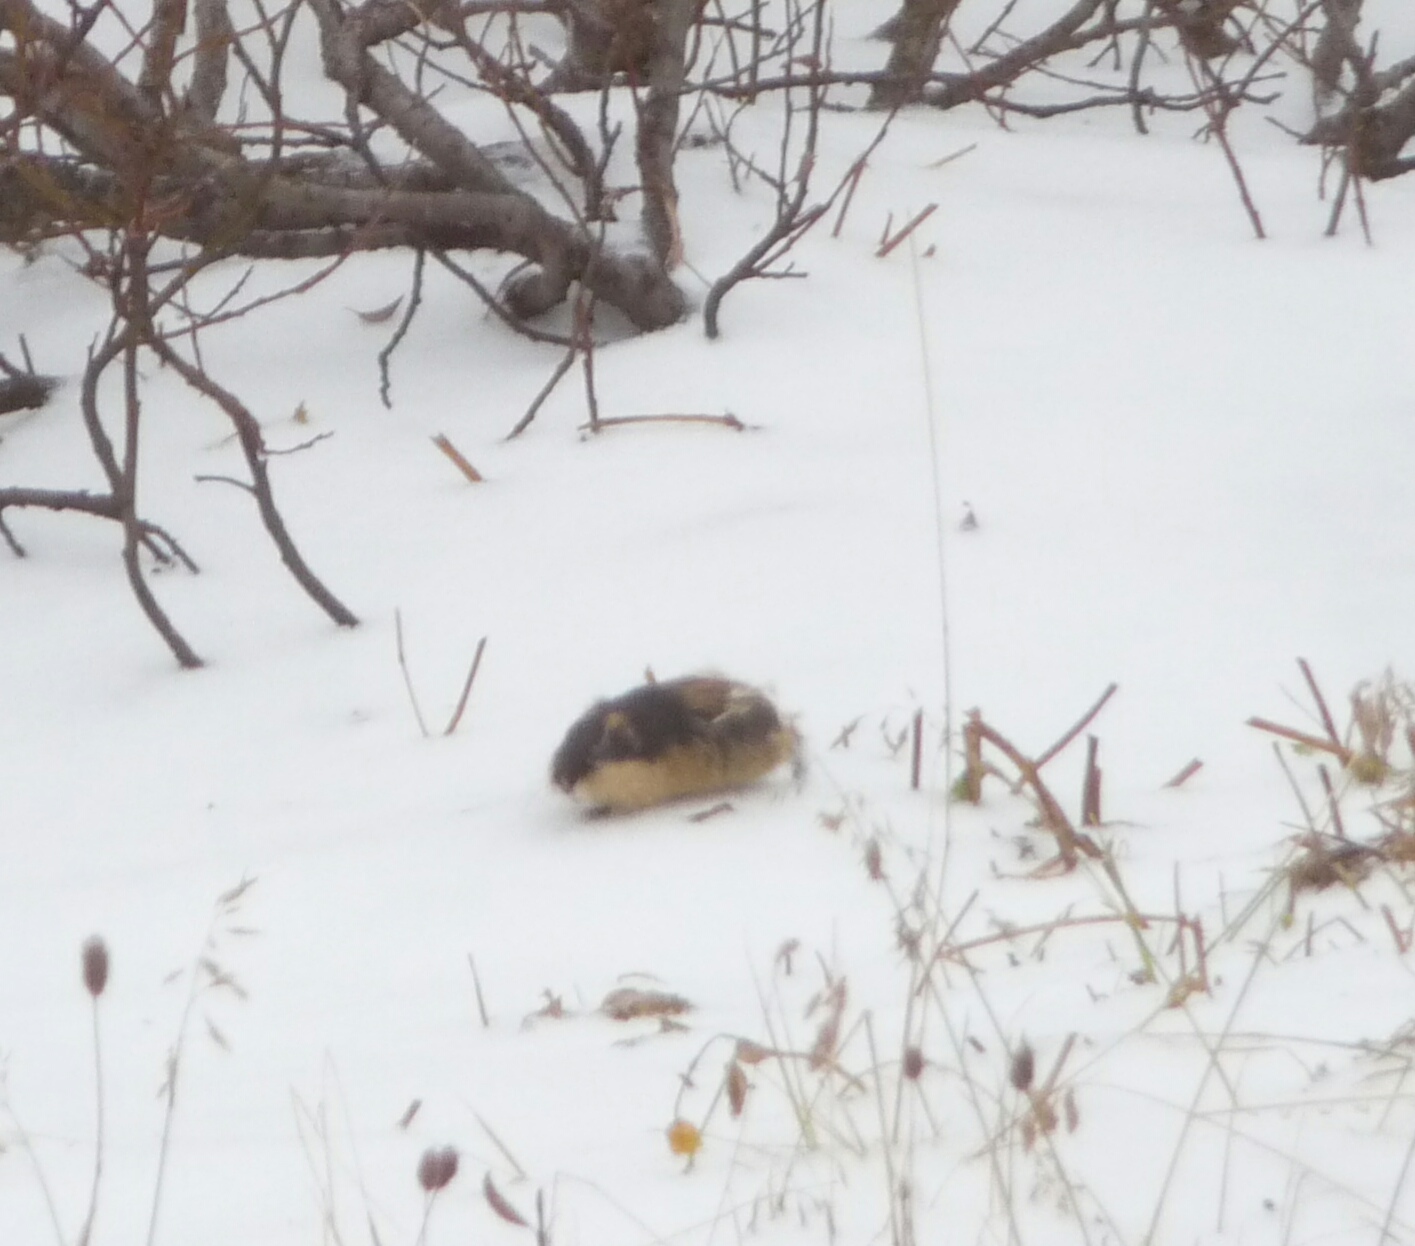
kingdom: Animalia
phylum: Chordata
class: Mammalia
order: Rodentia
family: Cricetidae
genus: Lemmus
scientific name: Lemmus lemmus
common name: Norway lemming
